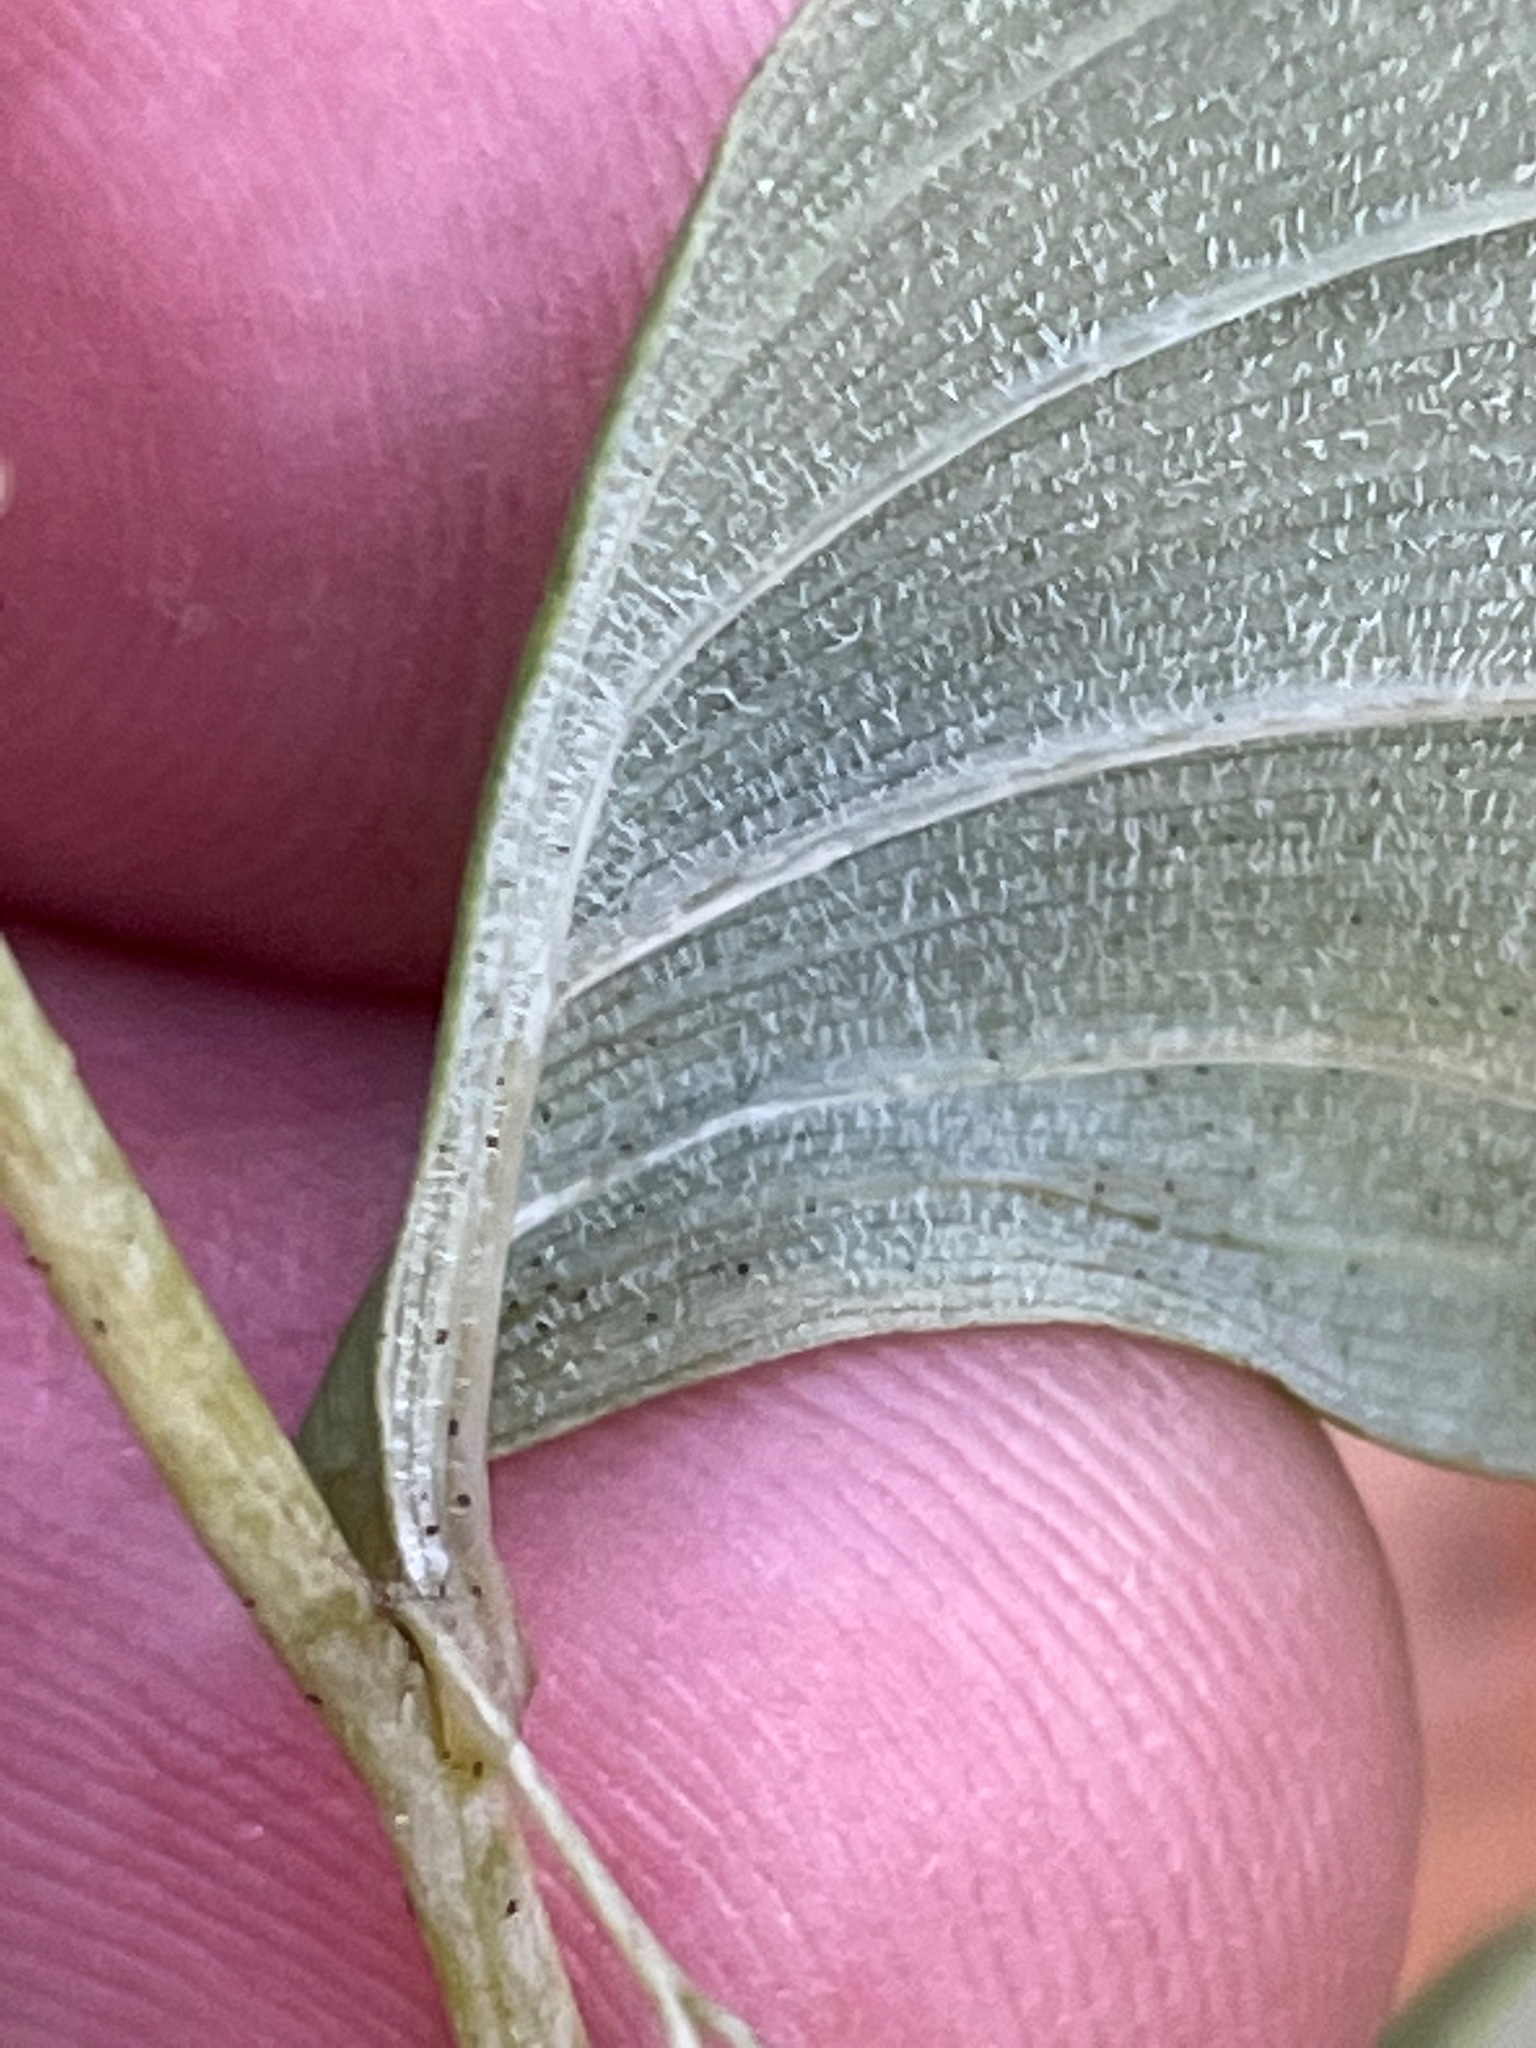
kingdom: Plantae
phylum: Tracheophyta
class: Liliopsida
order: Asparagales
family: Asparagaceae
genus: Polygonatum
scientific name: Polygonatum pubescens
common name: Downy solomon's seal
